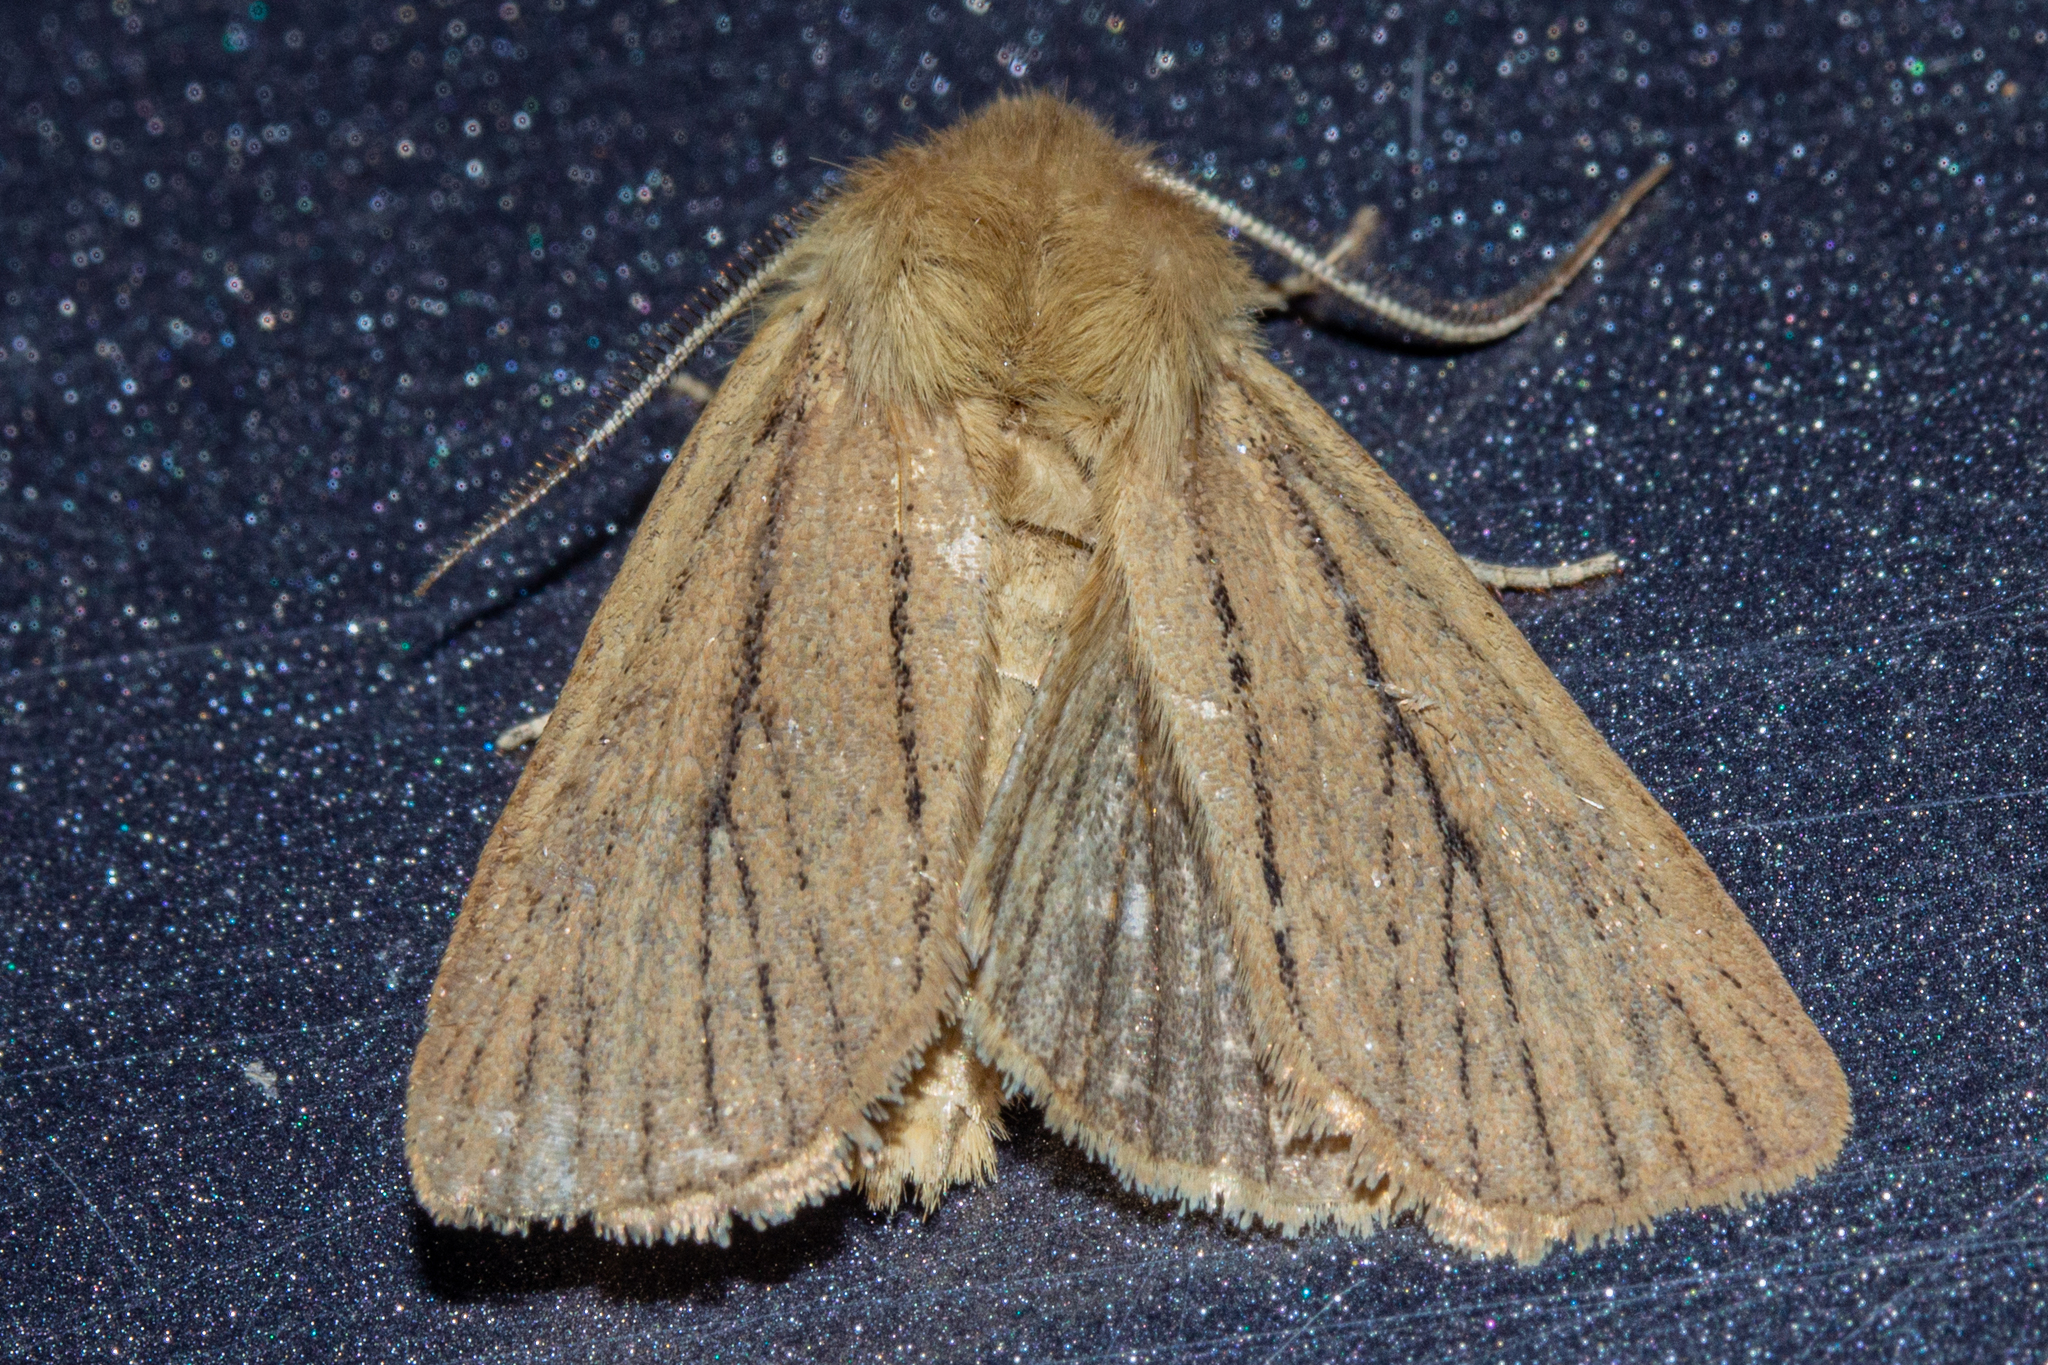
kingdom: Animalia
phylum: Arthropoda
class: Insecta
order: Lepidoptera
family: Noctuidae
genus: Ichneutica
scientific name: Ichneutica
